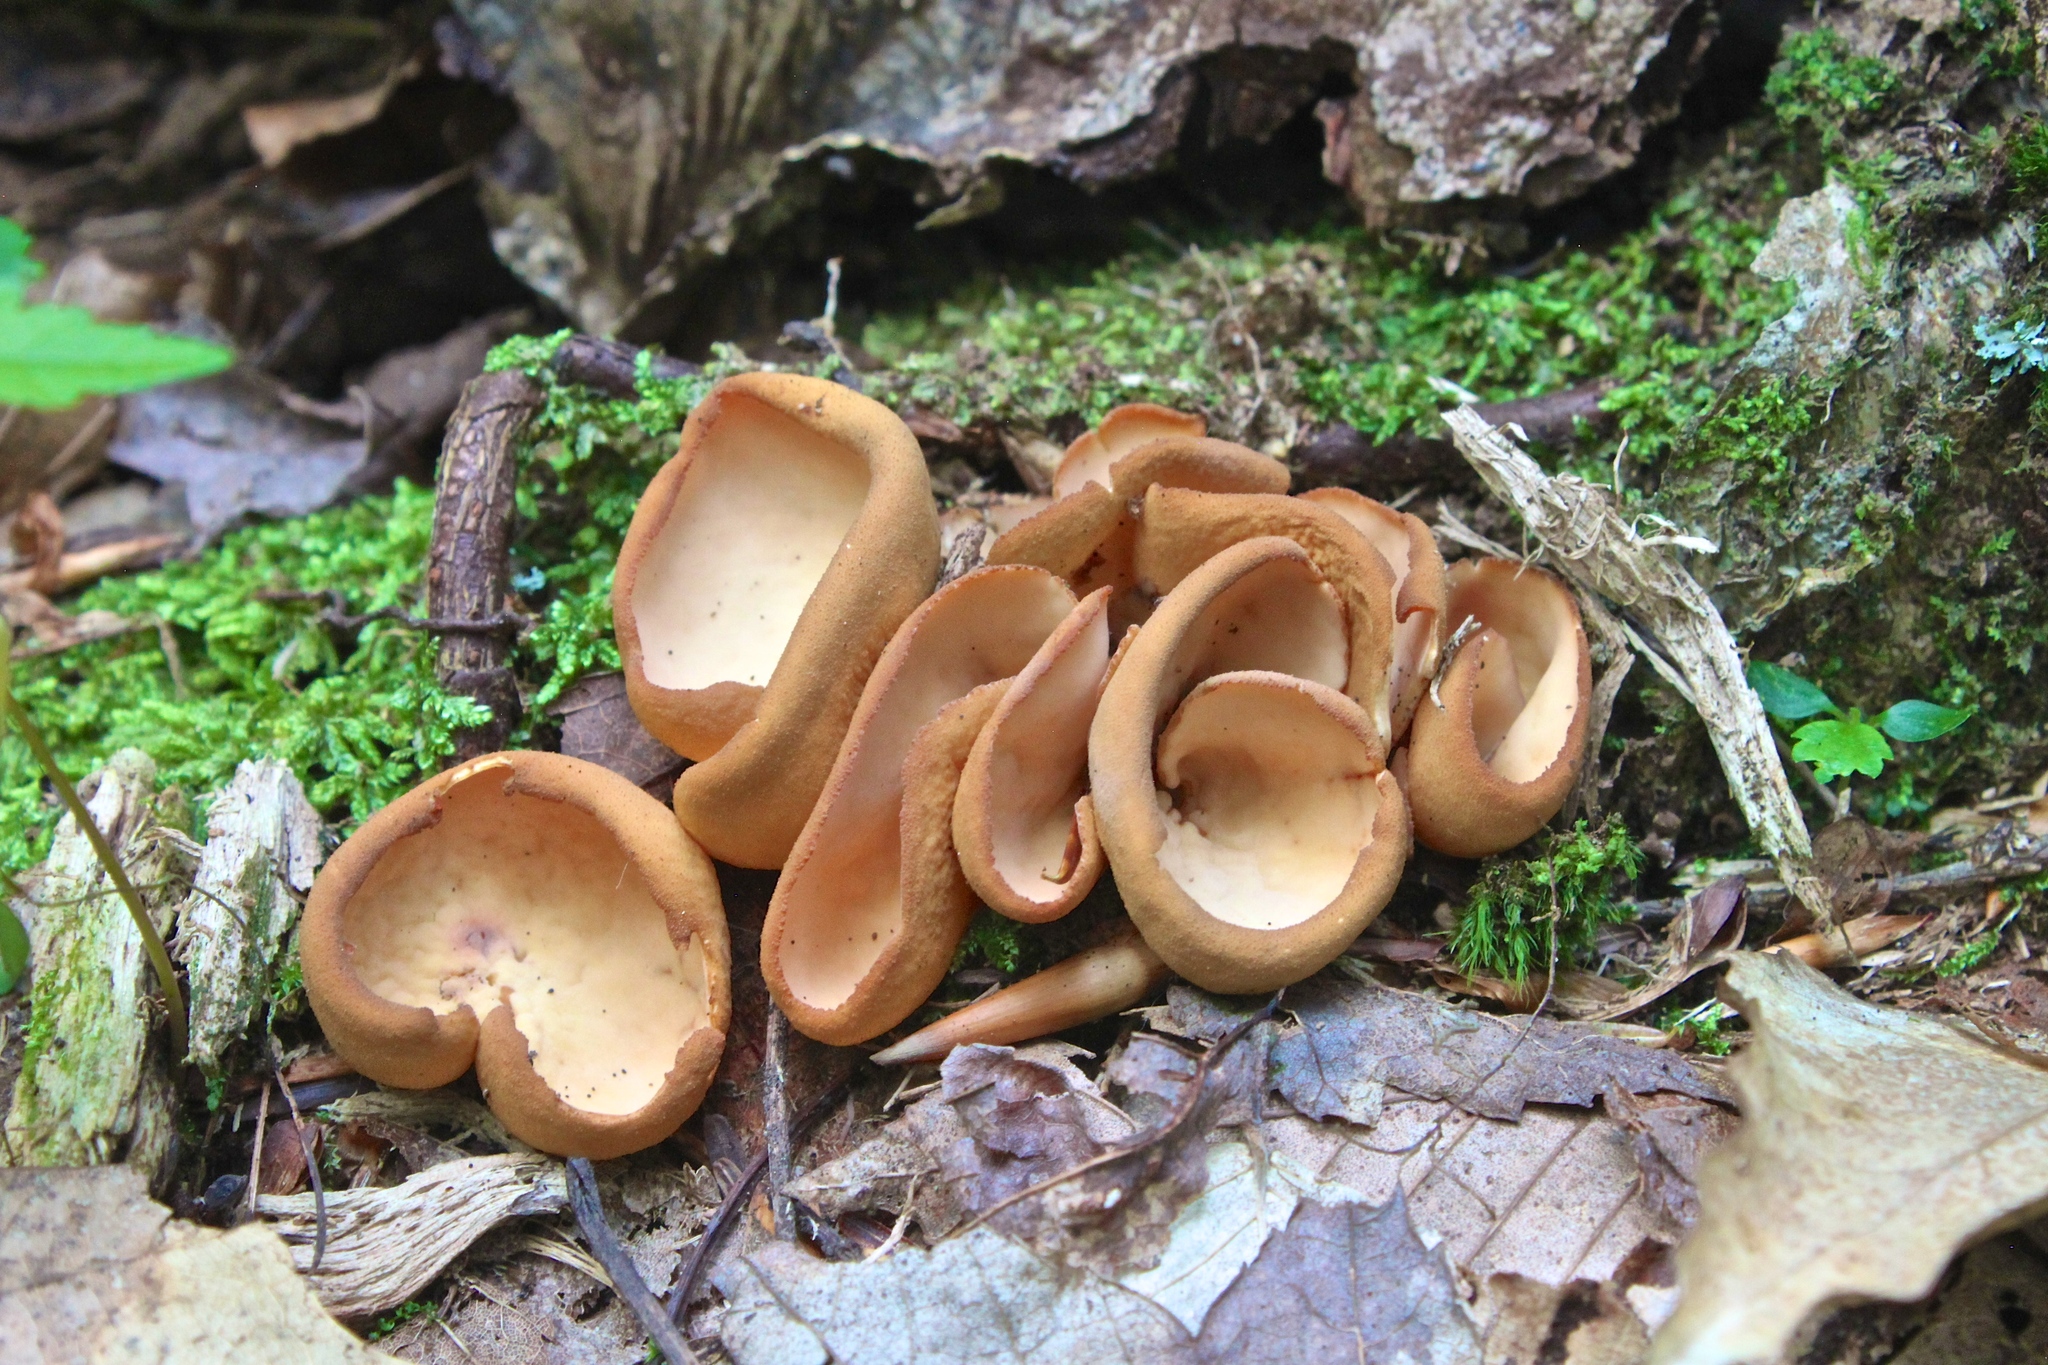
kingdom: Fungi
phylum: Ascomycota
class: Pezizomycetes
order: Pezizales
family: Otideaceae
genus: Otidea
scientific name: Otidea onotica
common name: Hare's ear
